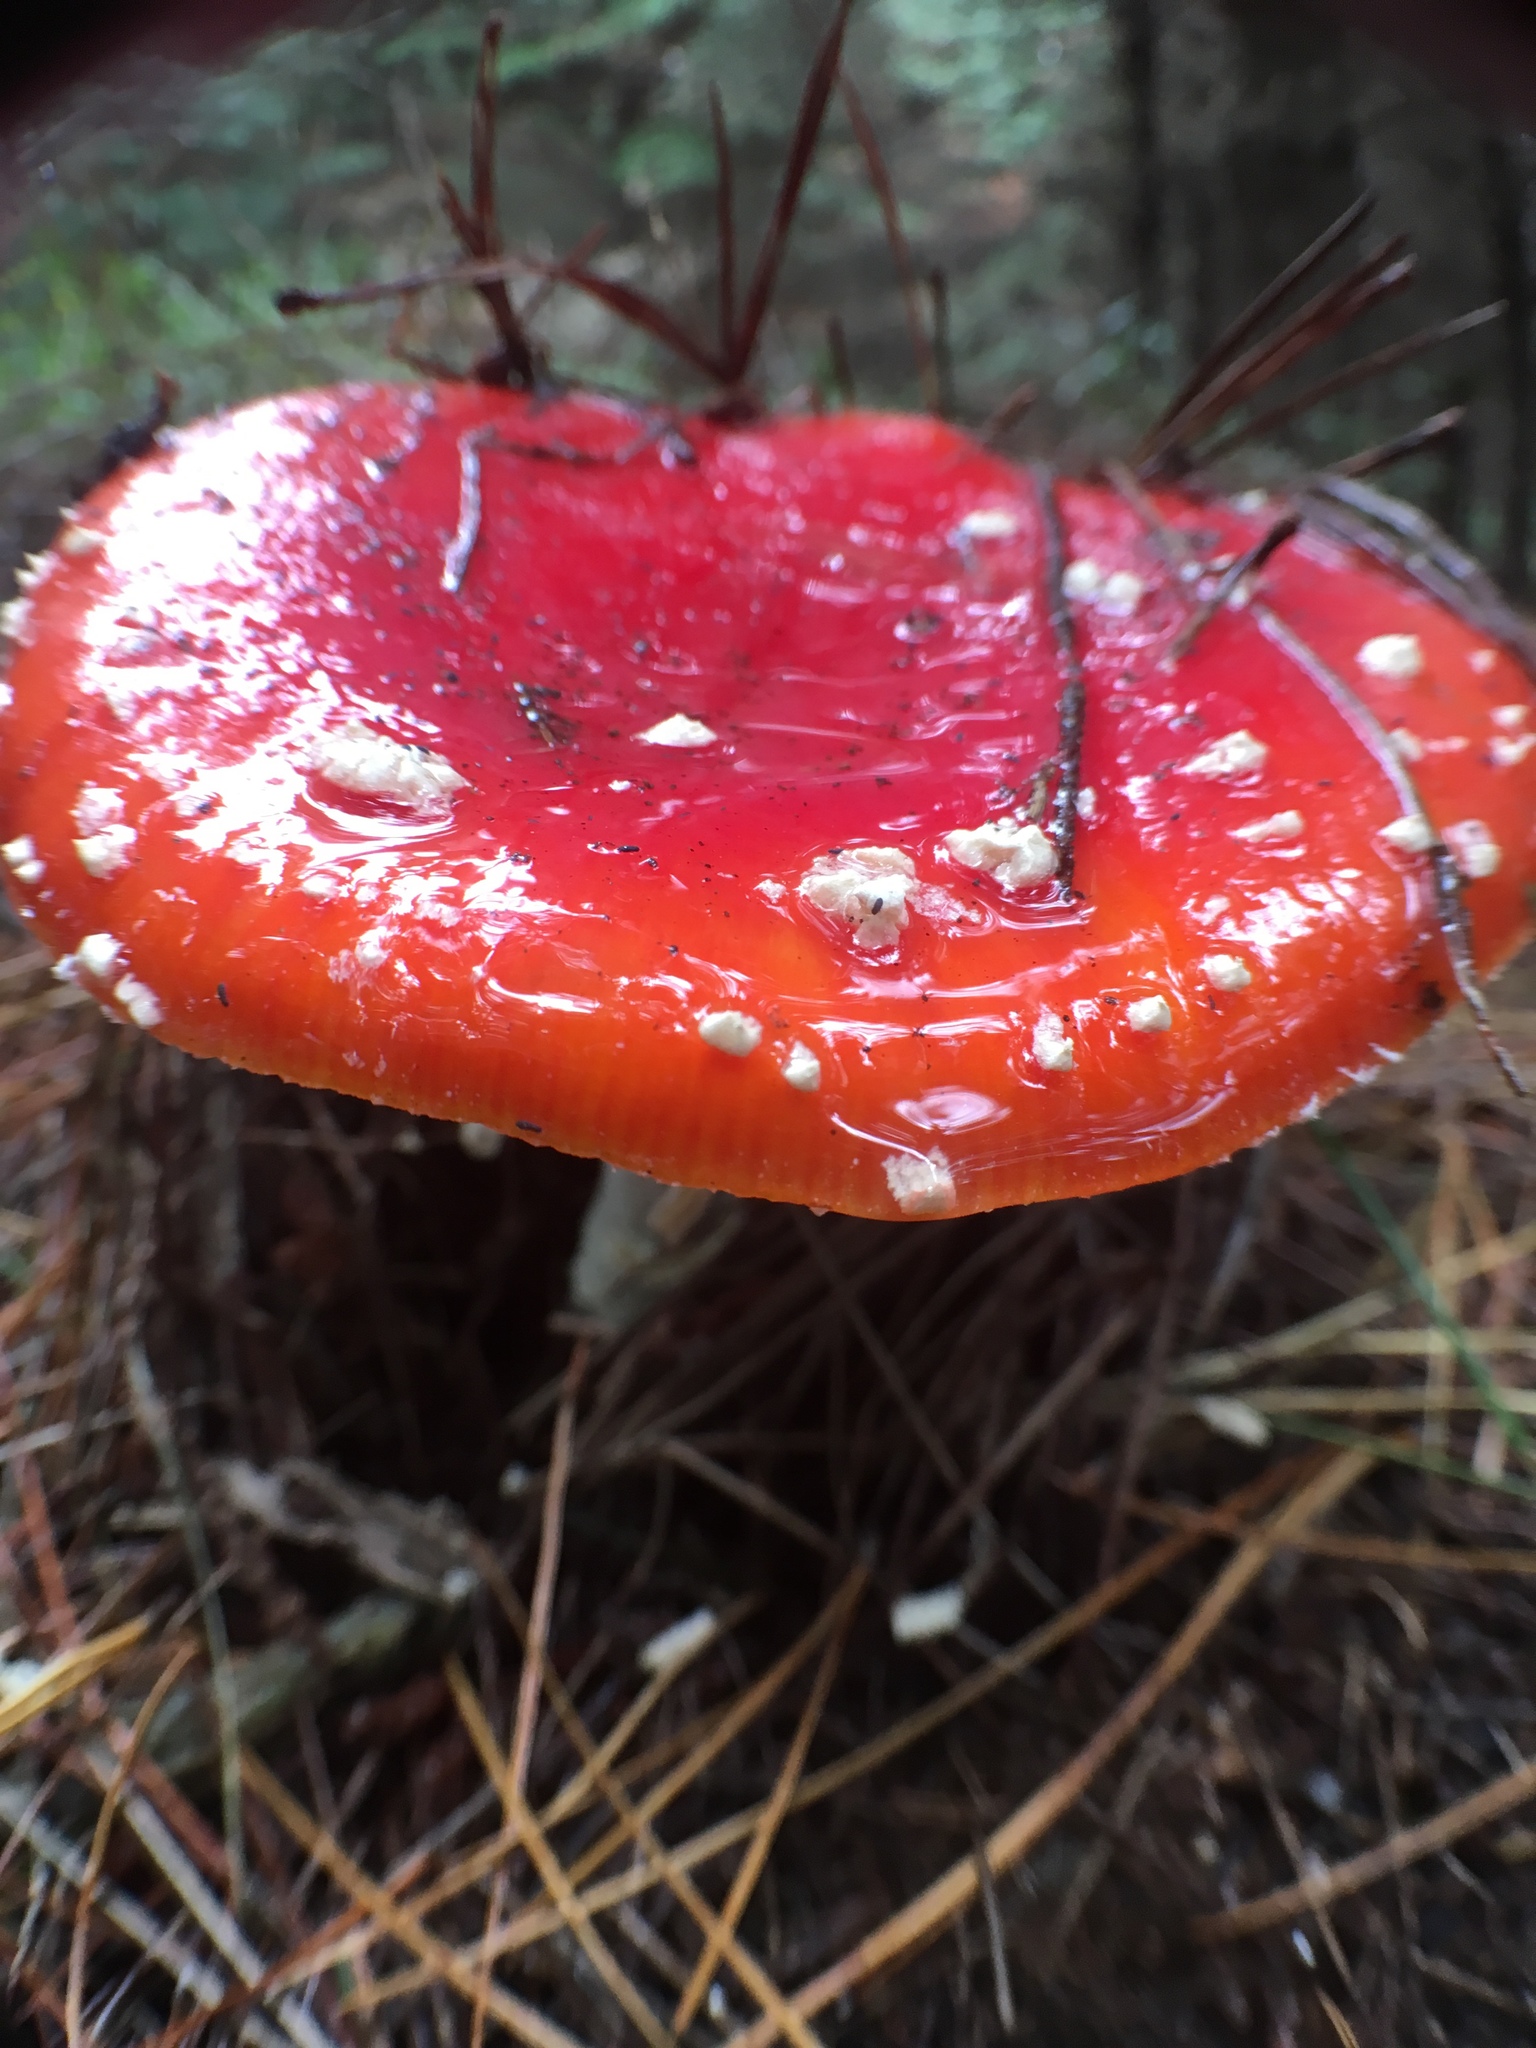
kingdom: Fungi
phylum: Basidiomycota
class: Agaricomycetes
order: Agaricales
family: Amanitaceae
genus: Amanita
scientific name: Amanita muscaria
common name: Fly agaric
